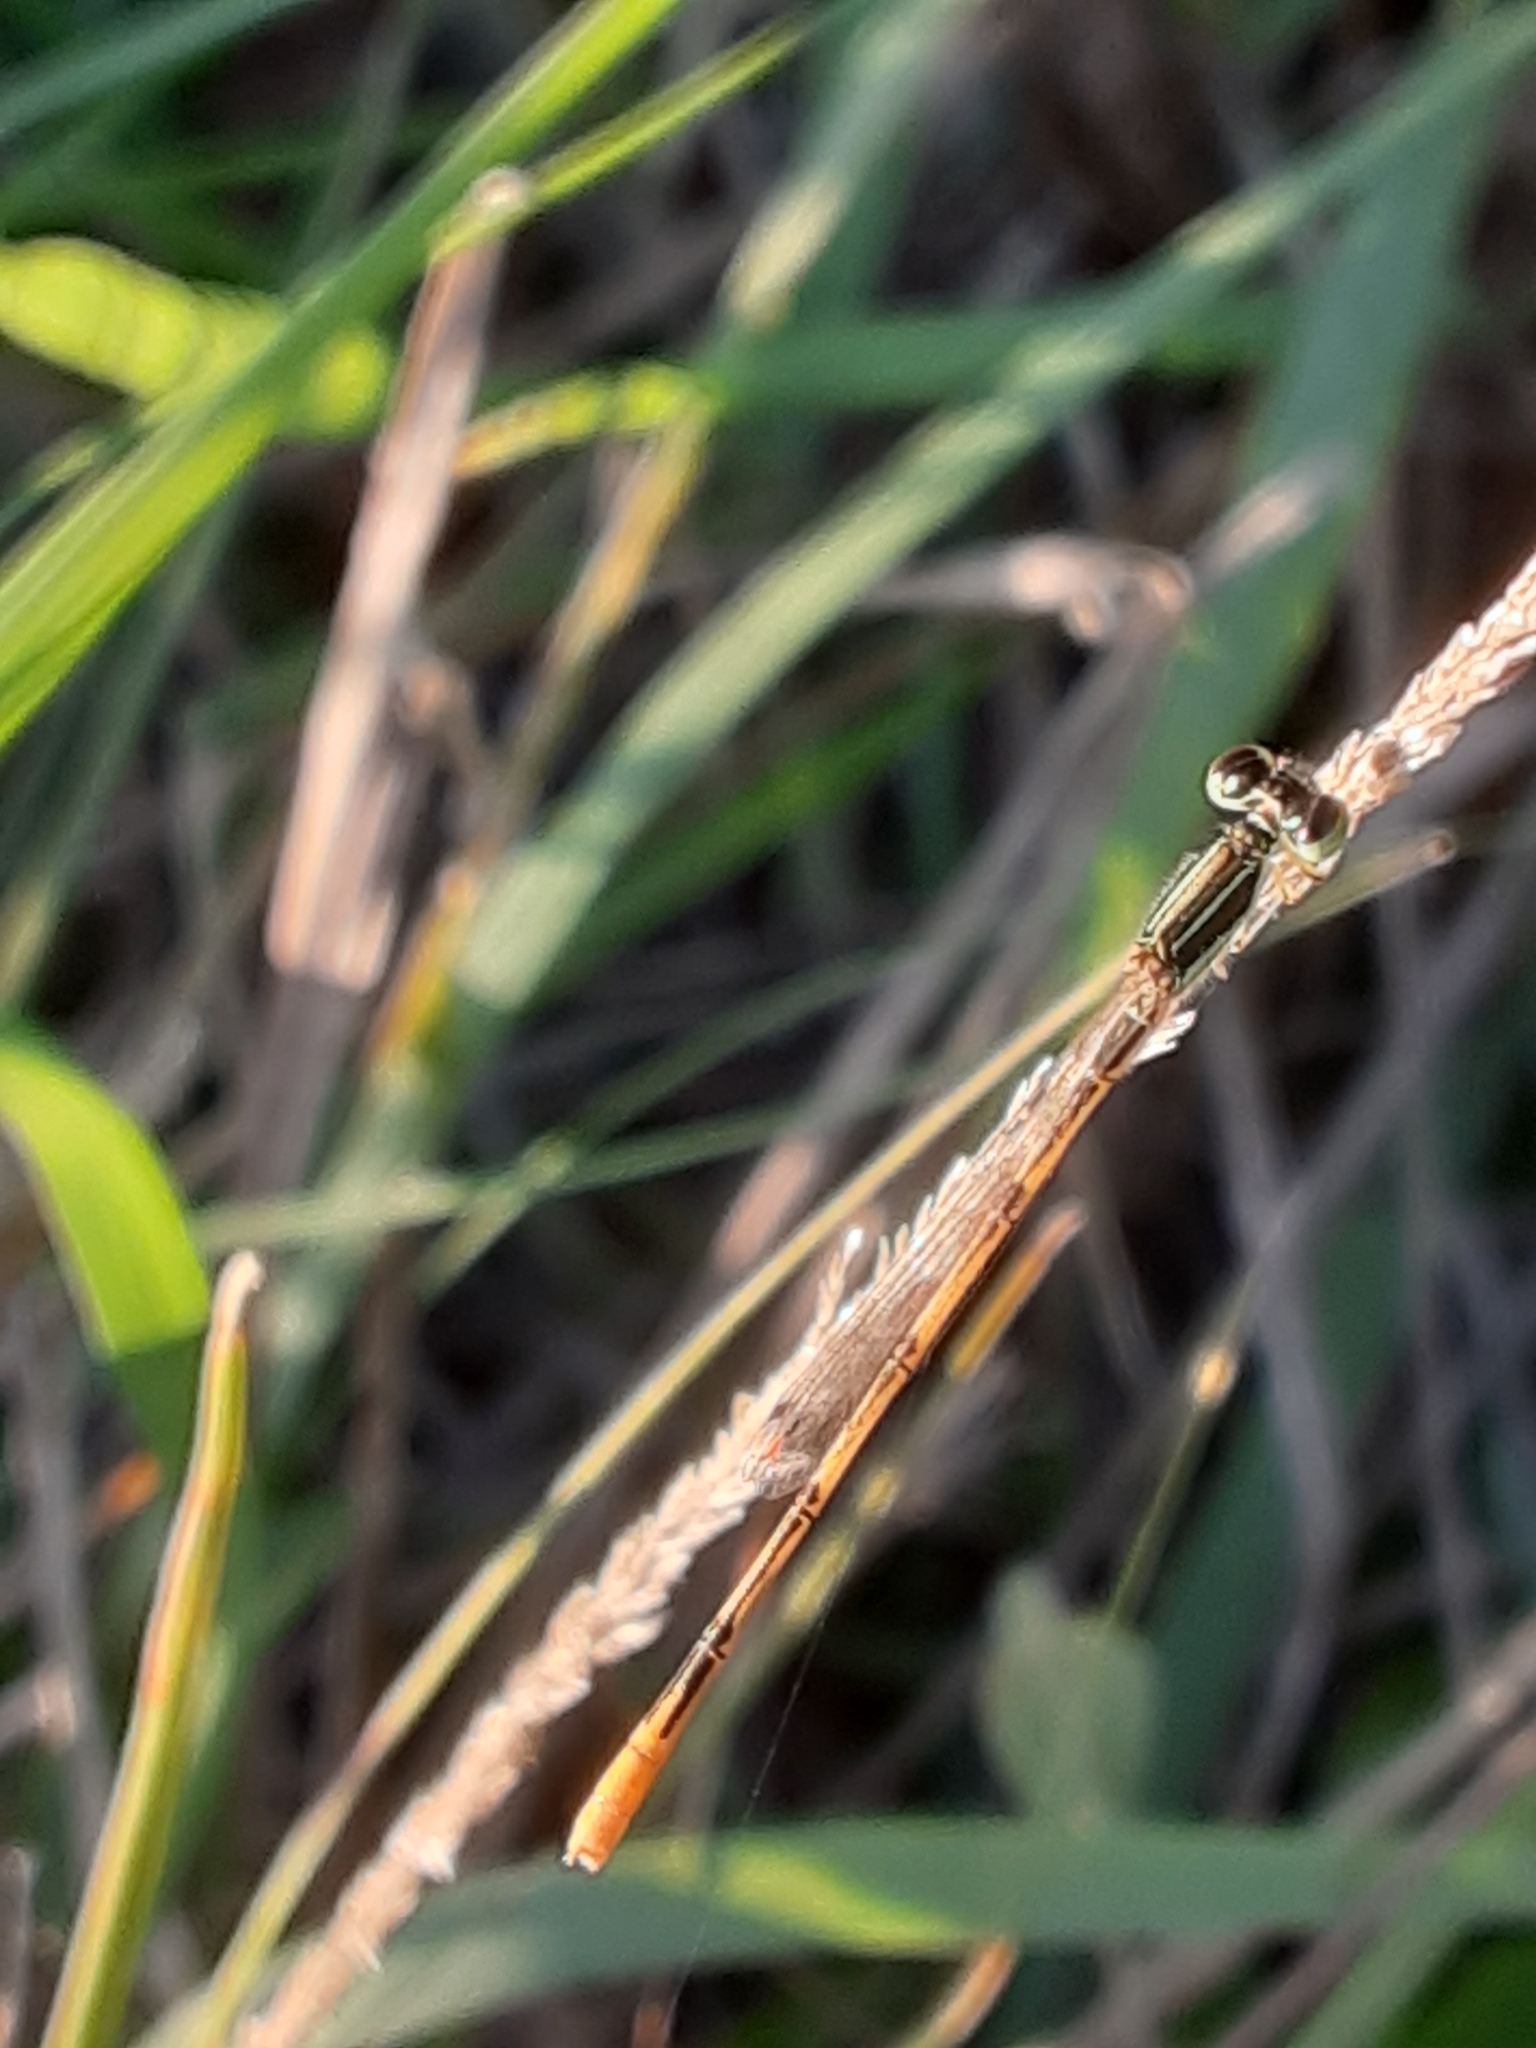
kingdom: Animalia
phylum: Arthropoda
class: Insecta
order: Odonata
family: Coenagrionidae
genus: Ischnura
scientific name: Ischnura hastata
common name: Citrine forktail
